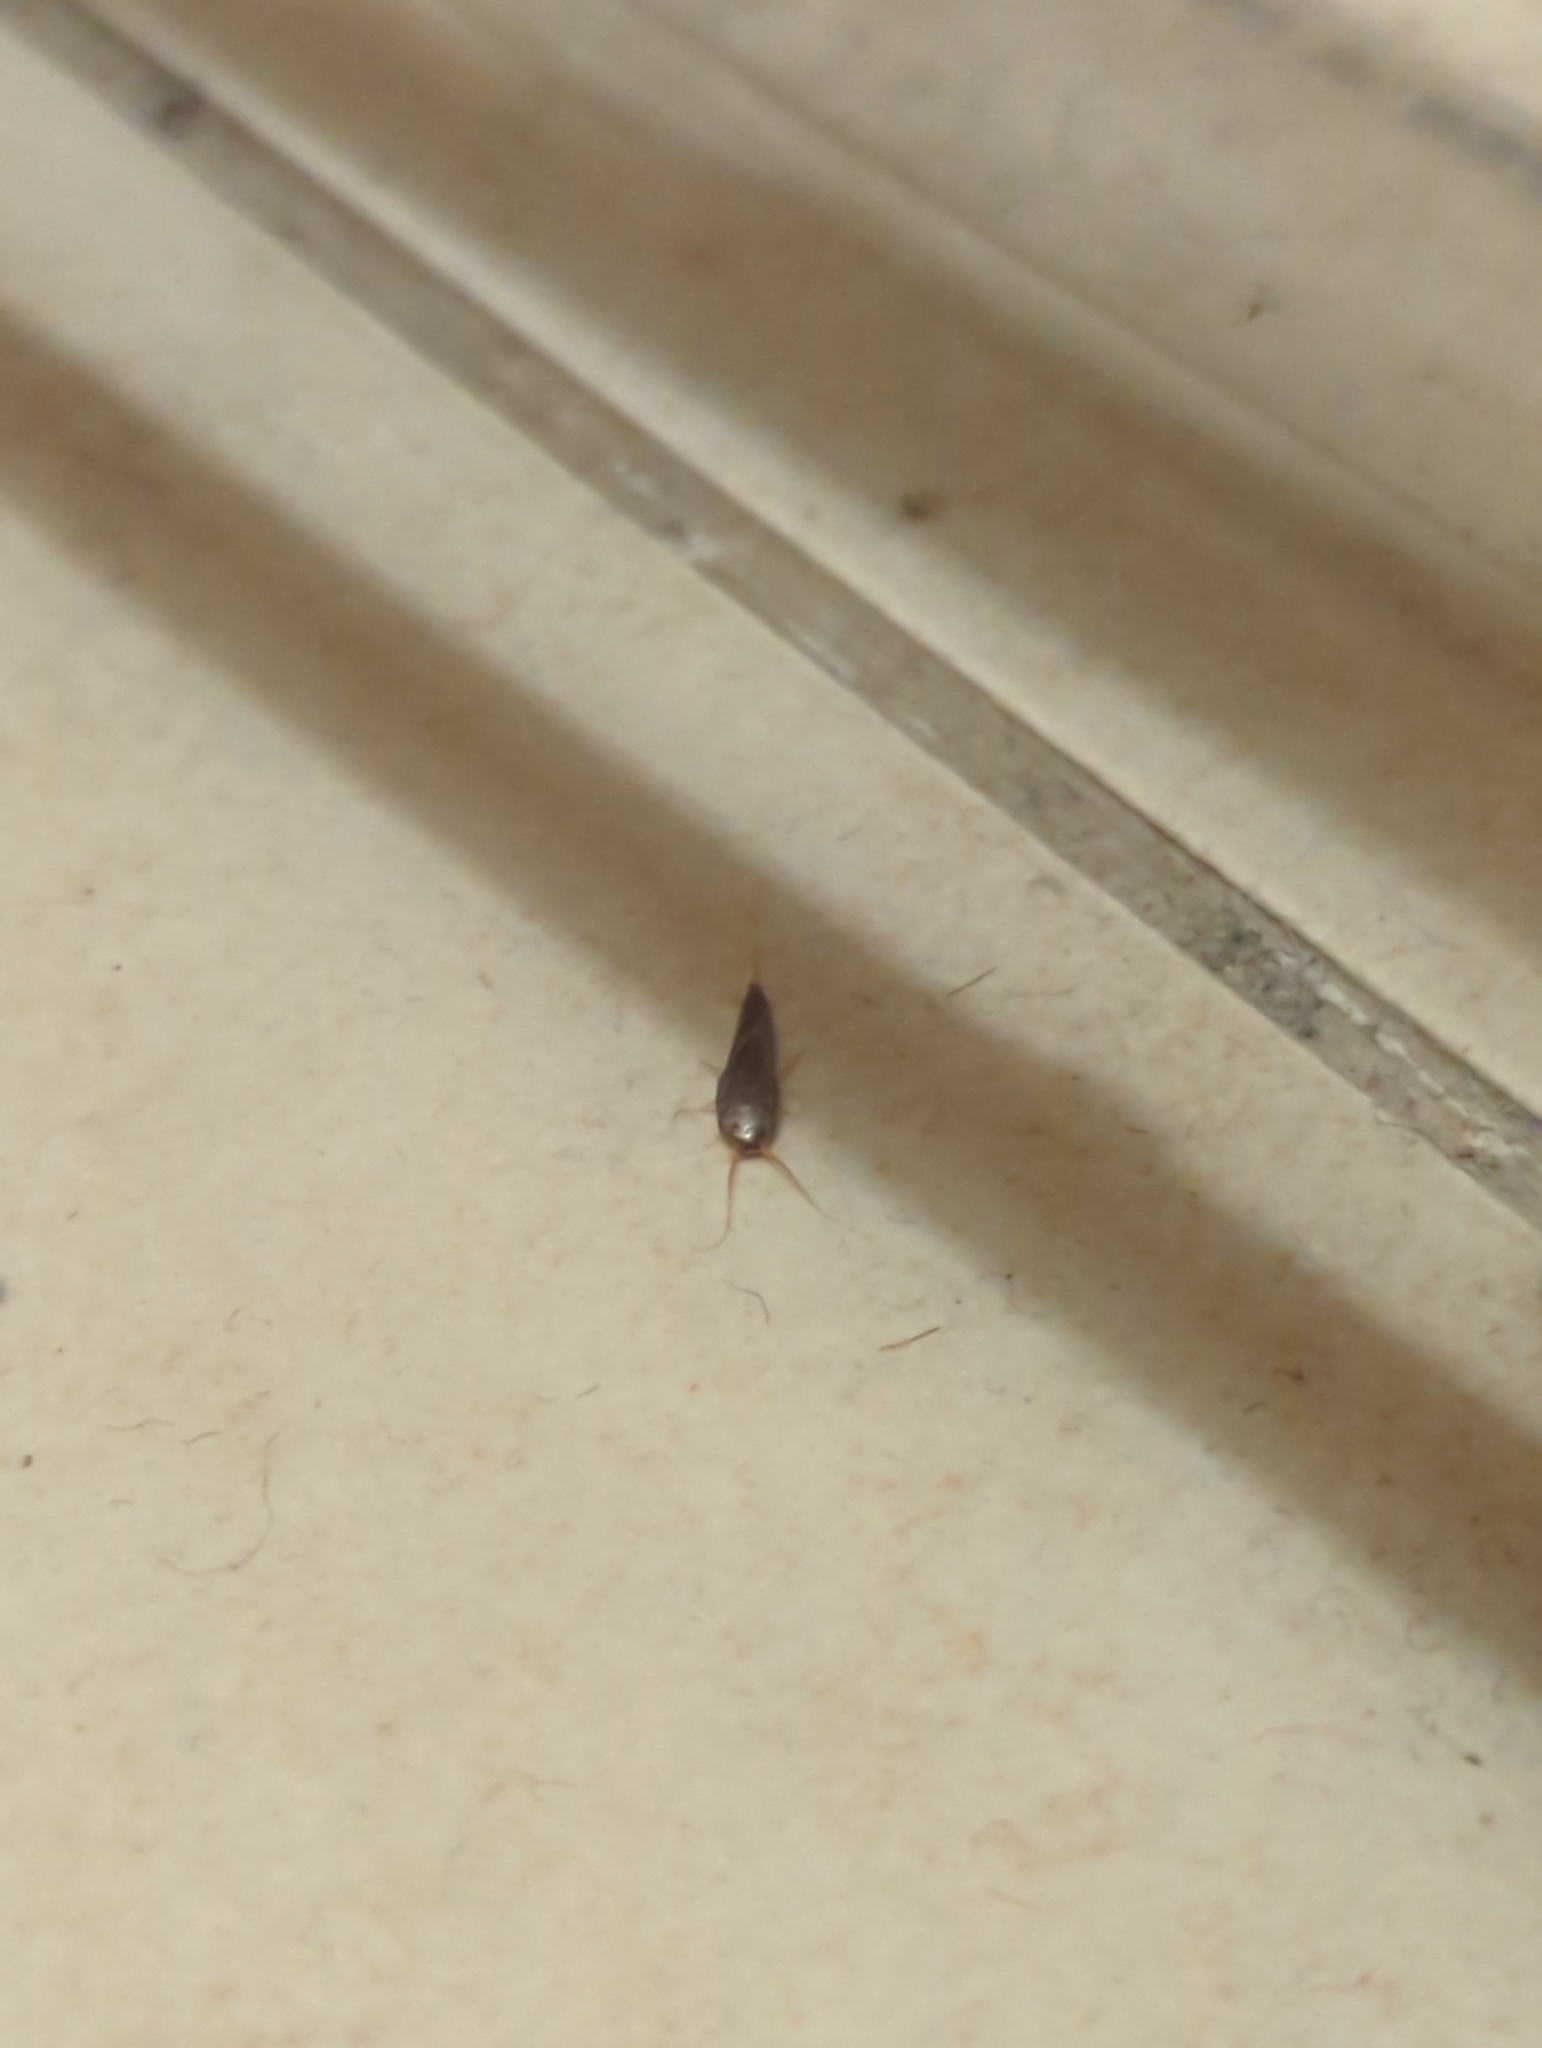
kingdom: Animalia
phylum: Arthropoda
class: Insecta
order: Zygentoma
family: Lepismatidae
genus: Lepisma
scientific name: Lepisma saccharinum
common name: Silverfish
